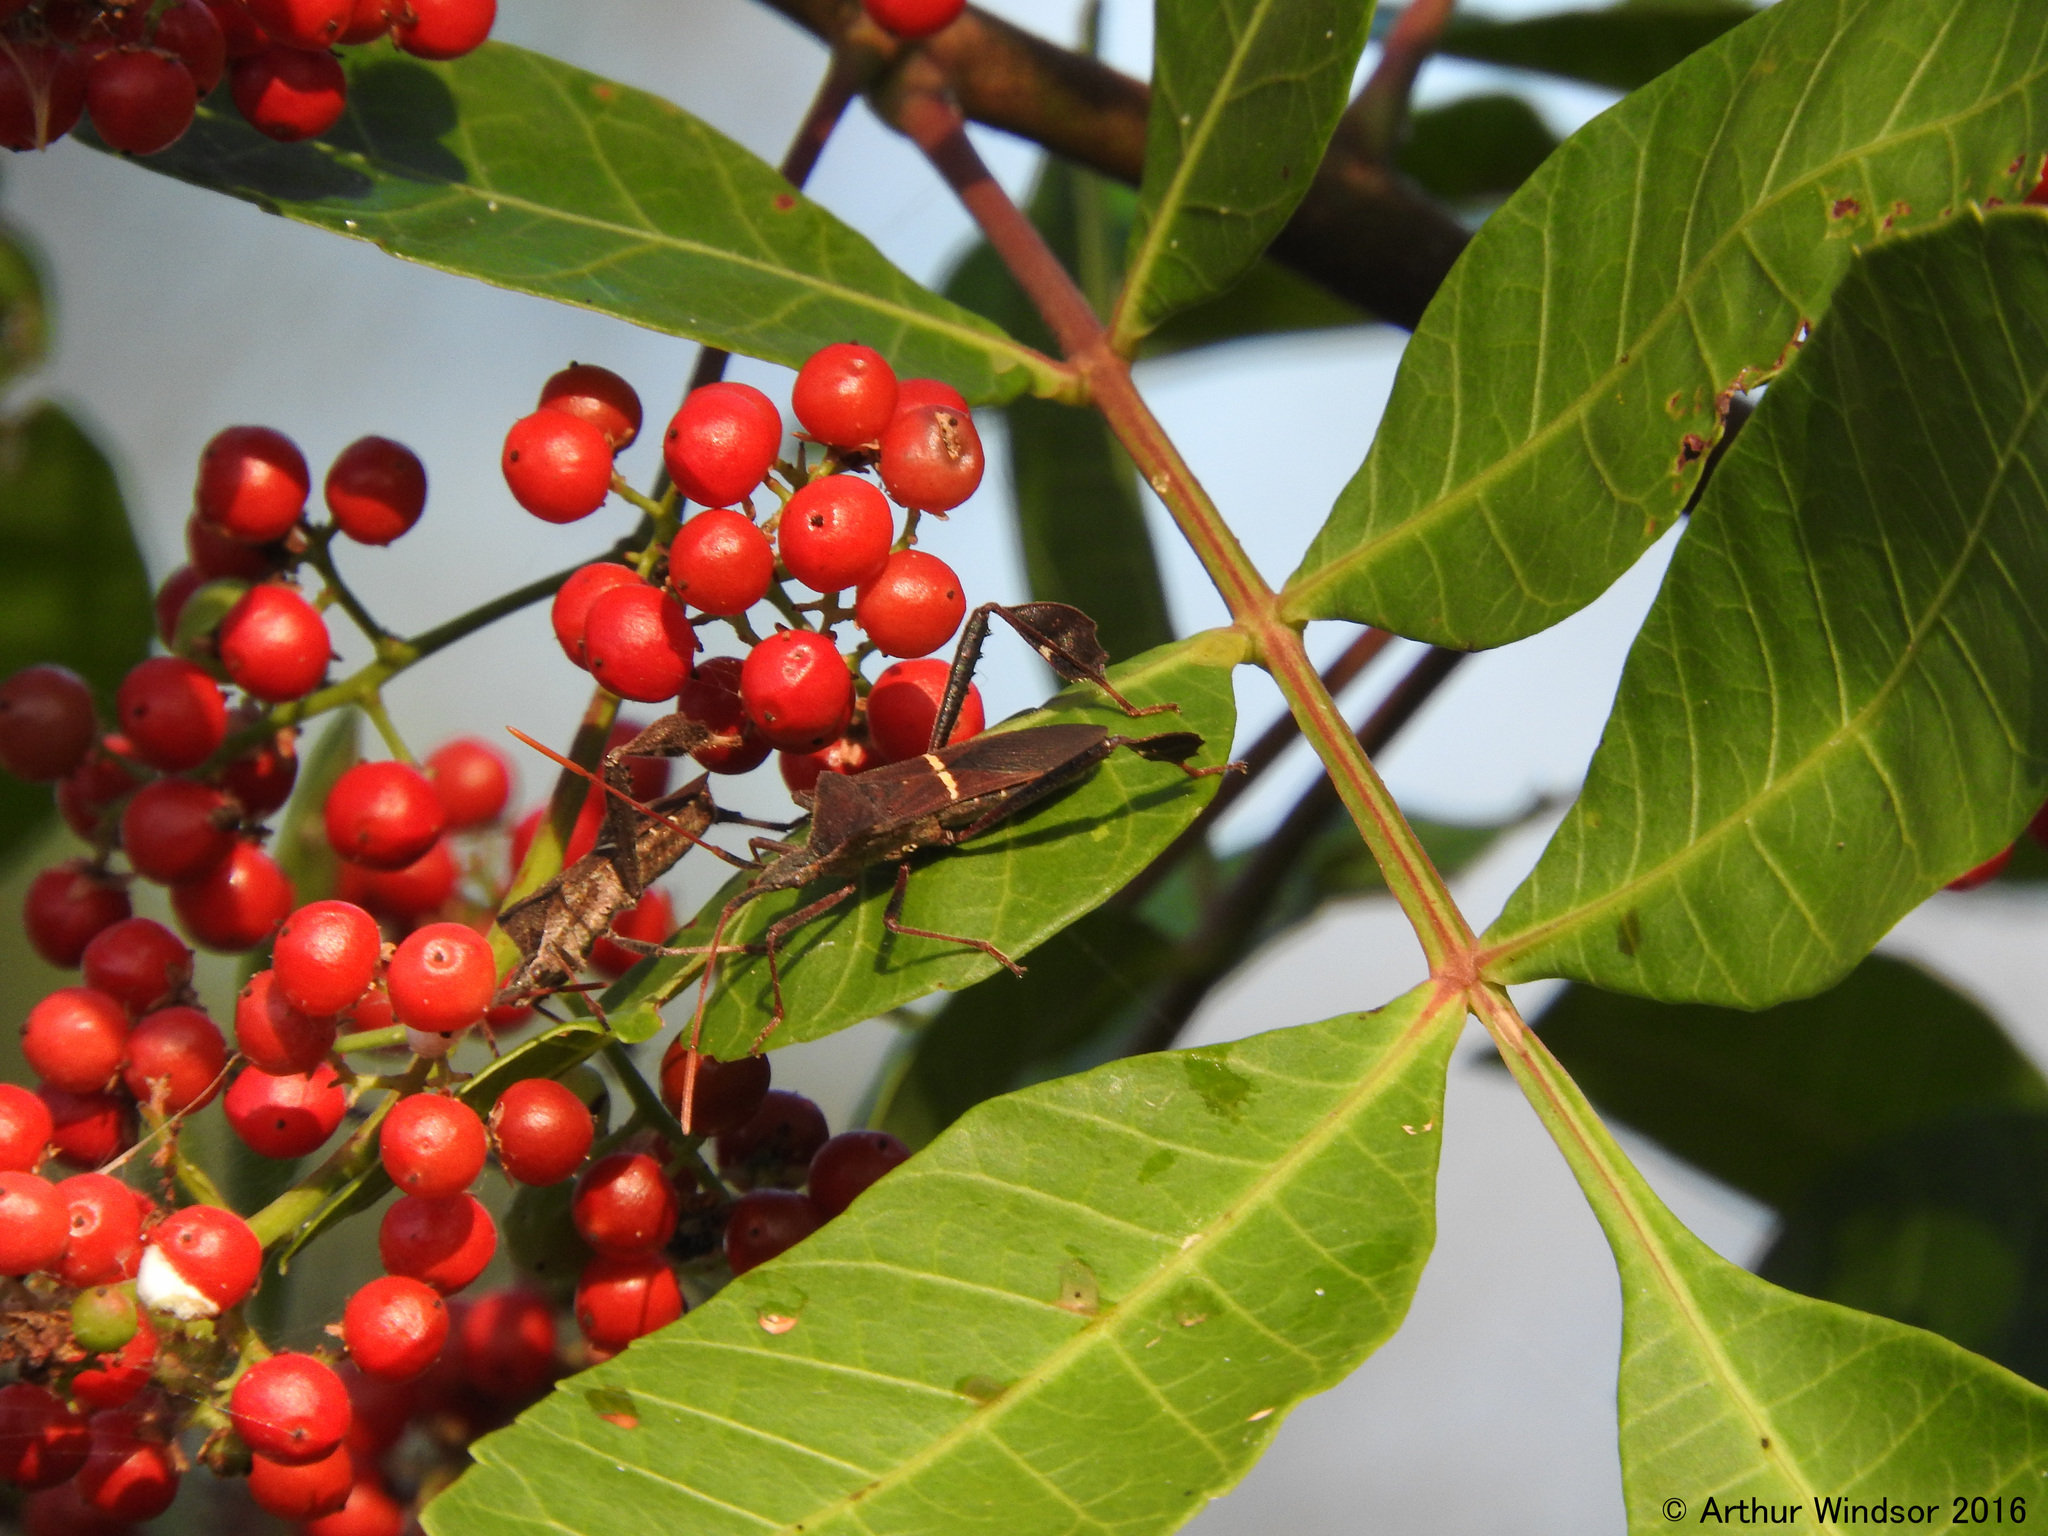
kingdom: Animalia
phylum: Arthropoda
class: Insecta
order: Hemiptera
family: Coreidae
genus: Leptoglossus
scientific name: Leptoglossus phyllopus
